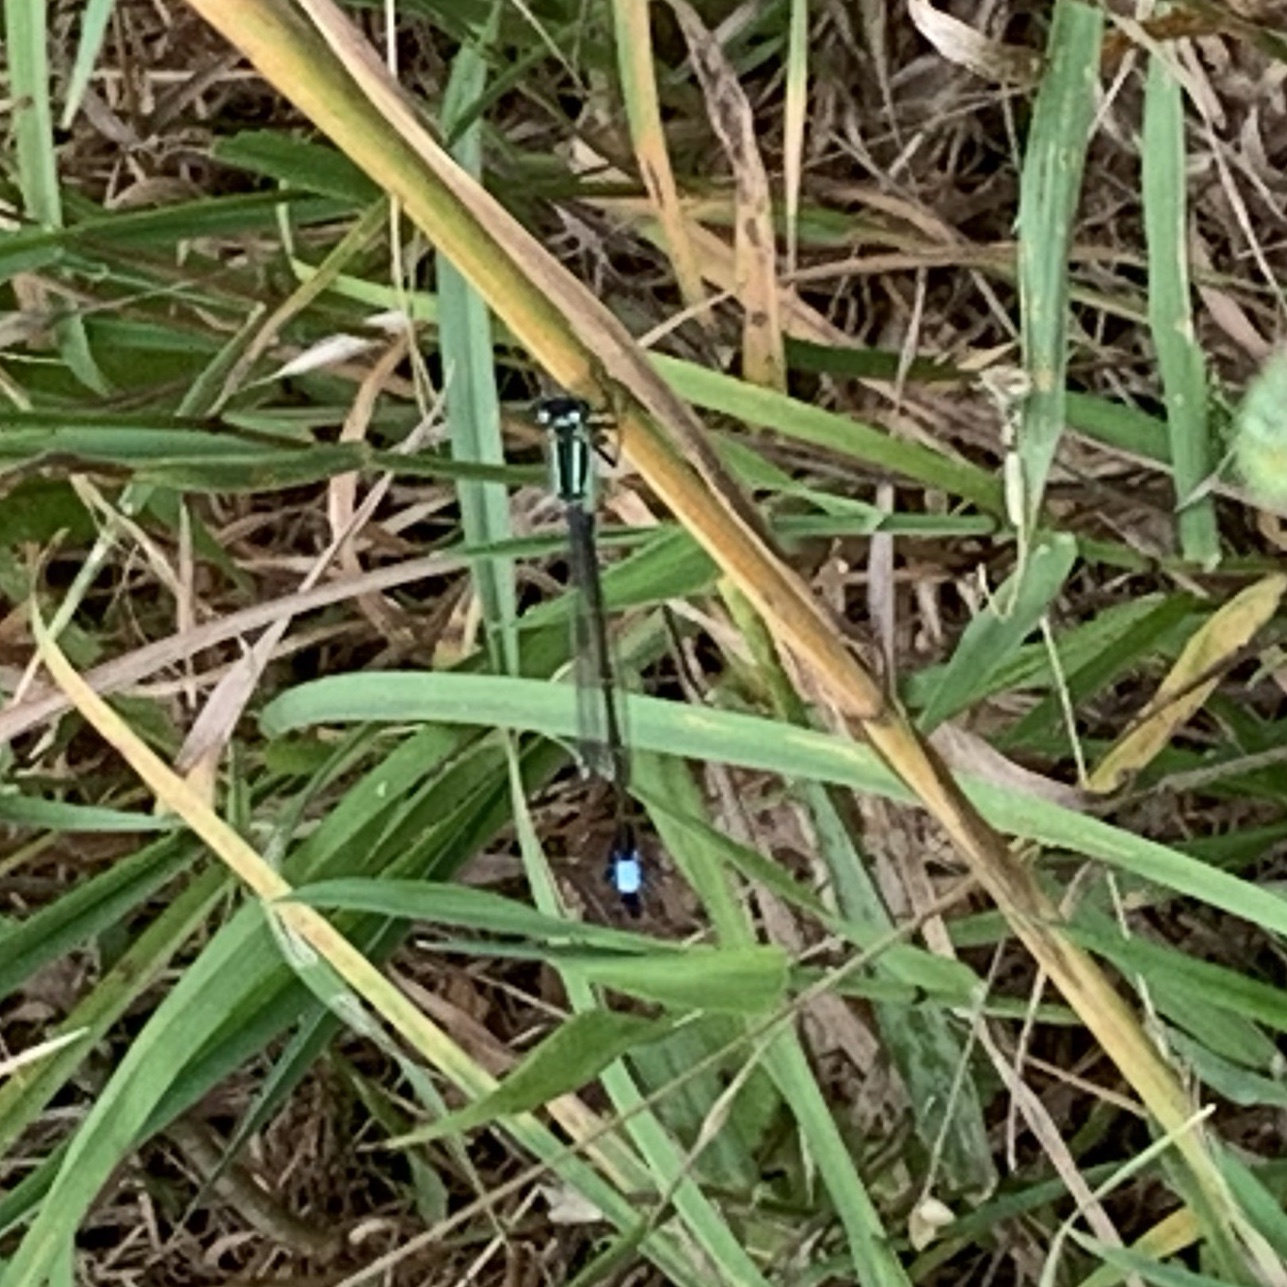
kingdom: Animalia
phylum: Arthropoda
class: Insecta
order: Odonata
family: Coenagrionidae
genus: Ischnura
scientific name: Ischnura elegans
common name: Blue-tailed damselfly
